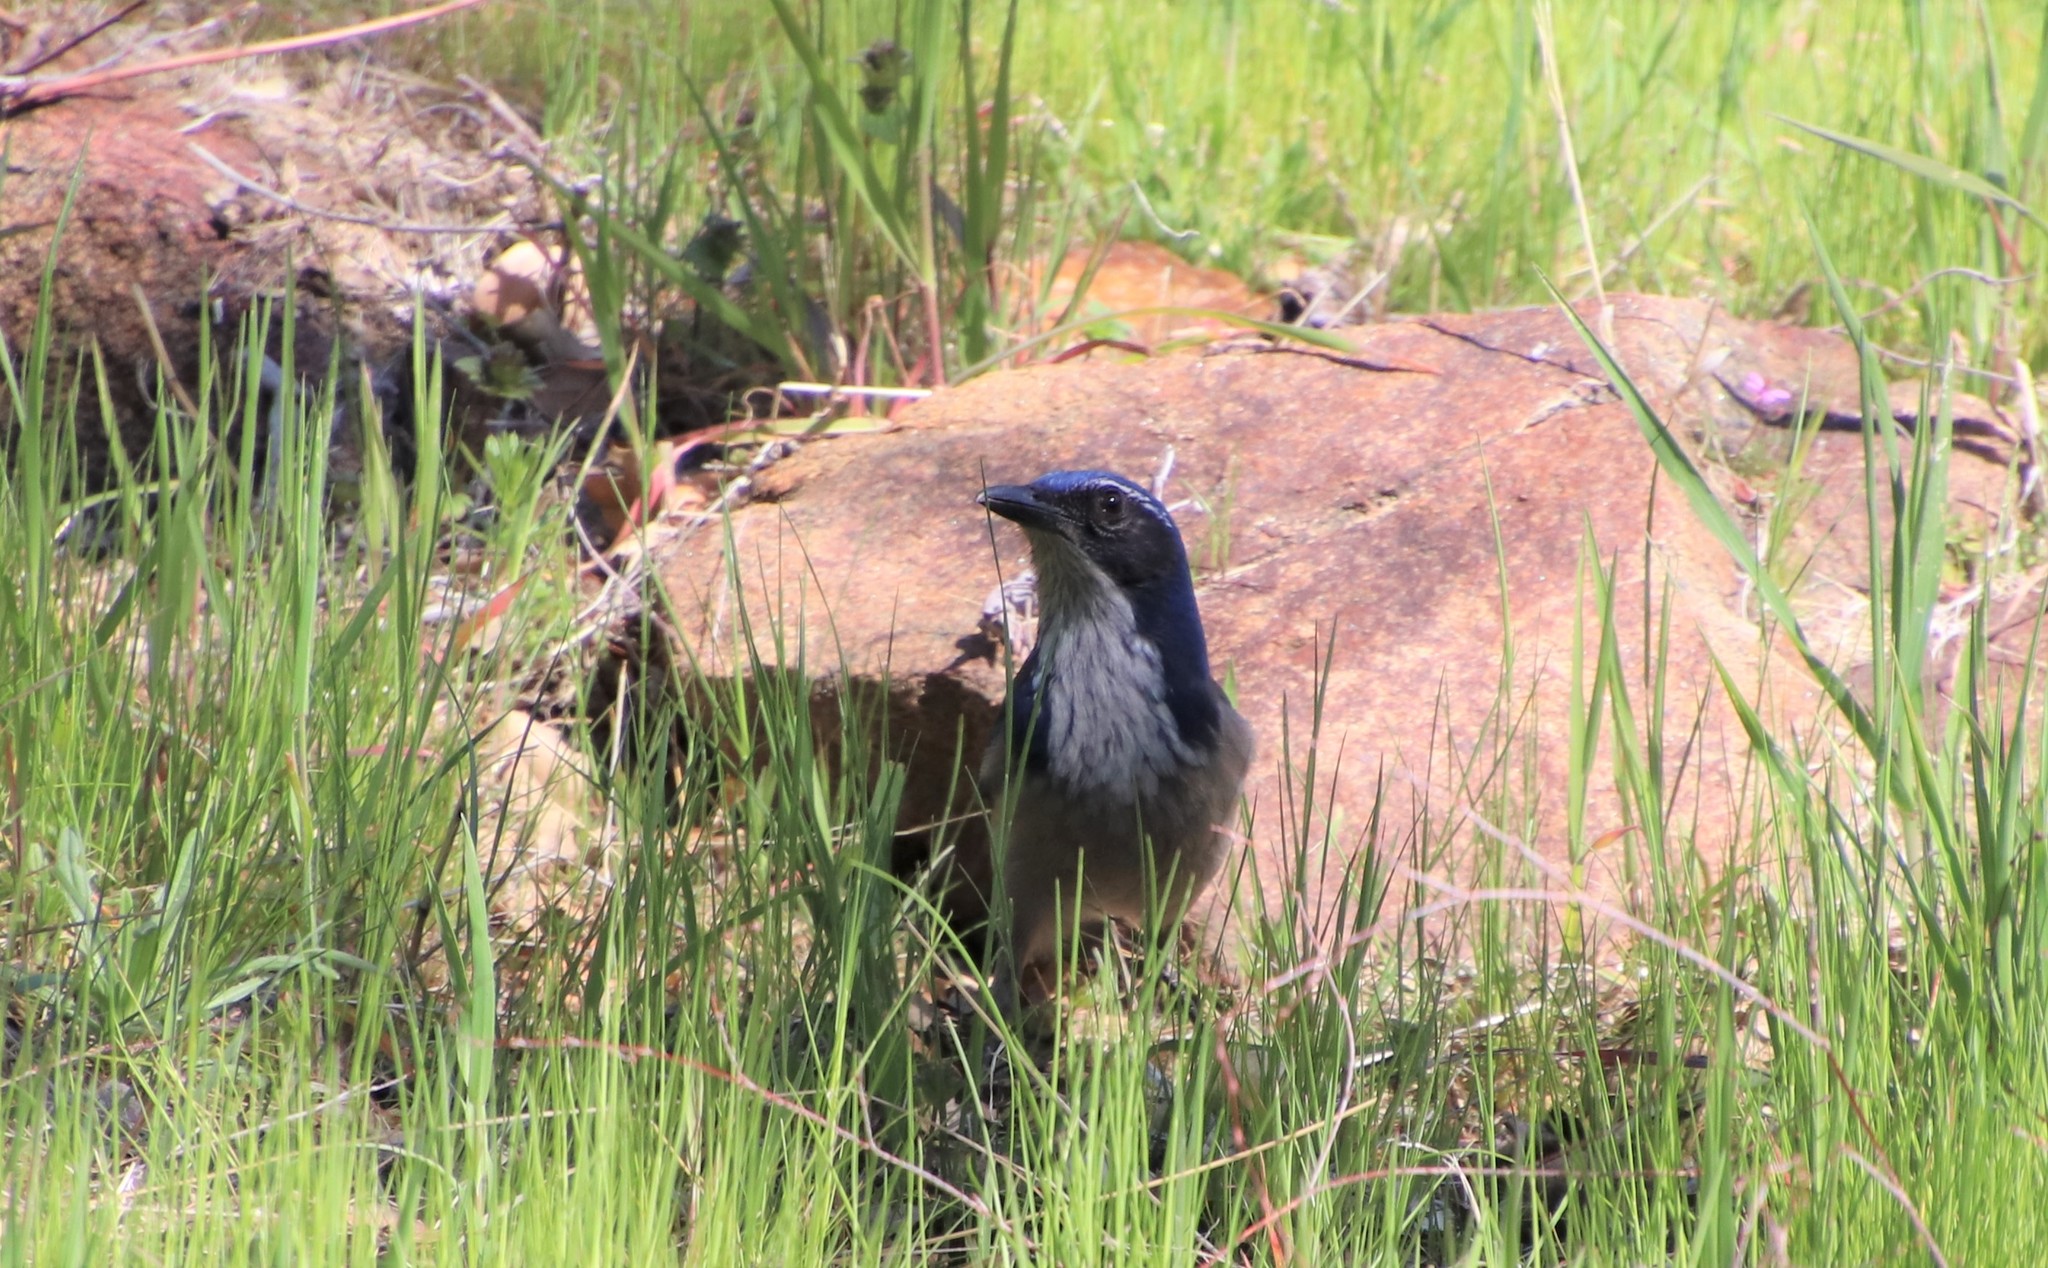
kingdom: Animalia
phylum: Chordata
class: Aves
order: Passeriformes
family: Corvidae
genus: Aphelocoma
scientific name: Aphelocoma californica
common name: California scrub-jay
